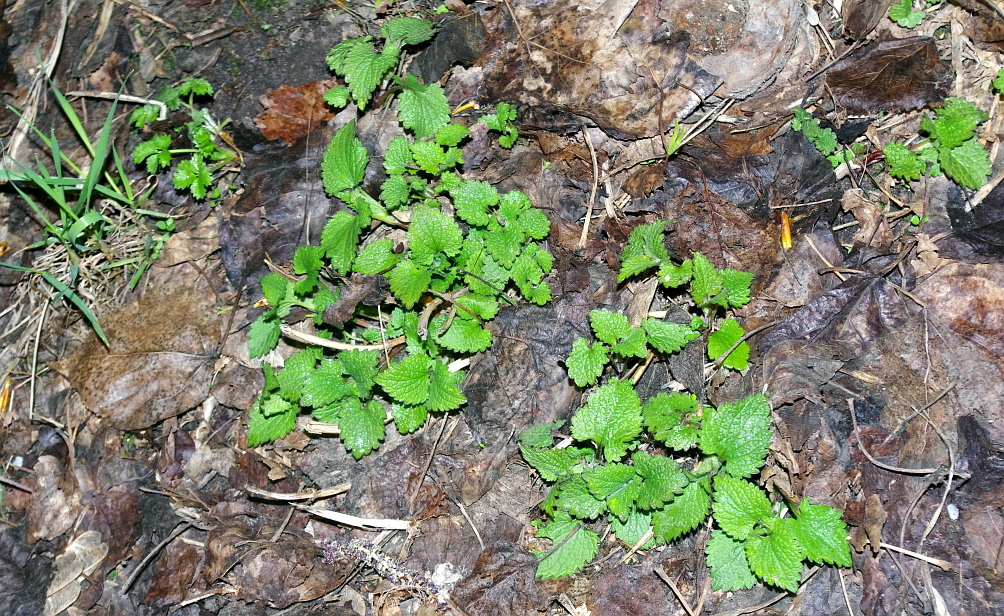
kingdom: Plantae
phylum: Tracheophyta
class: Magnoliopsida
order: Lamiales
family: Lamiaceae
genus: Lamium
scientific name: Lamium album
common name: White dead-nettle
